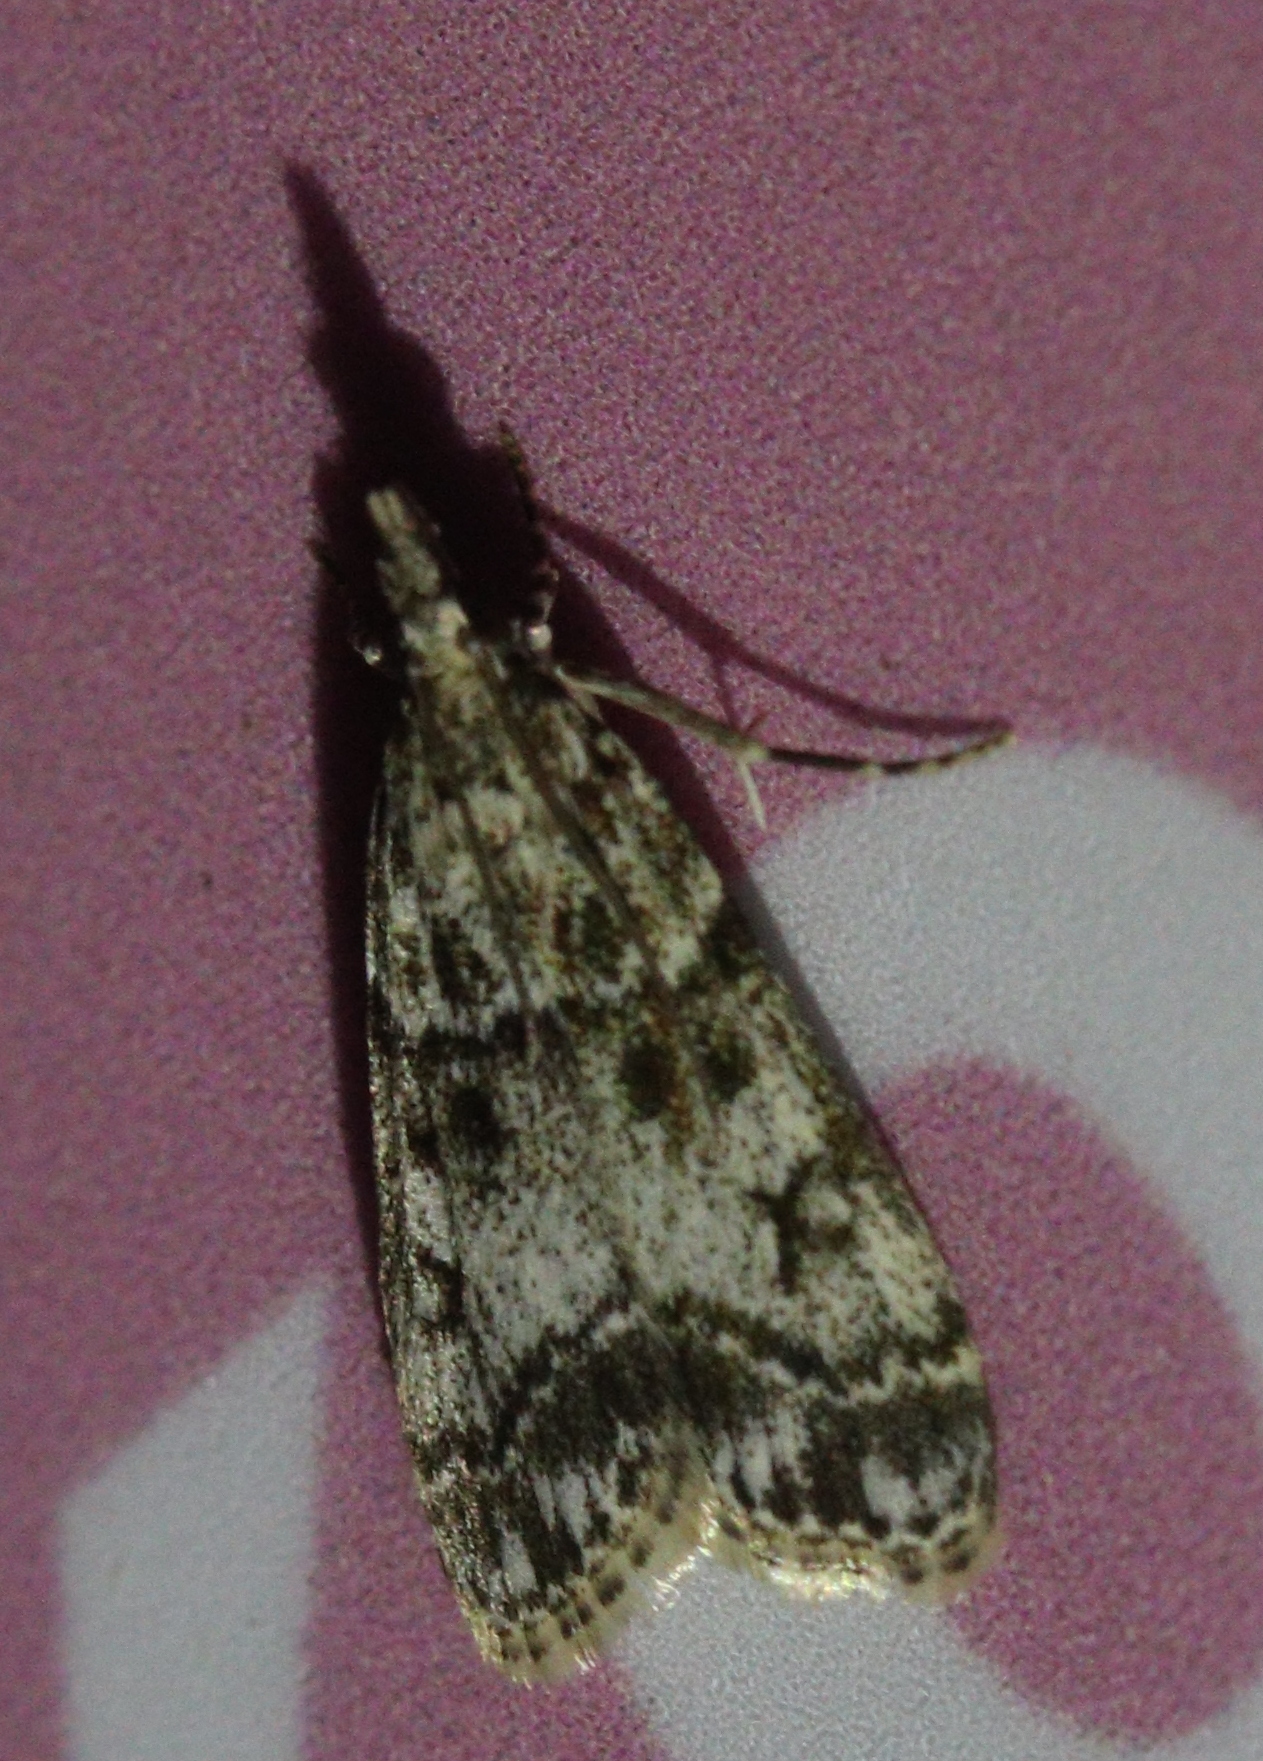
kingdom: Animalia
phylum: Arthropoda
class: Insecta
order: Lepidoptera
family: Crambidae
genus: Eudonia
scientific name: Eudonia lacustrata
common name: Little grey
